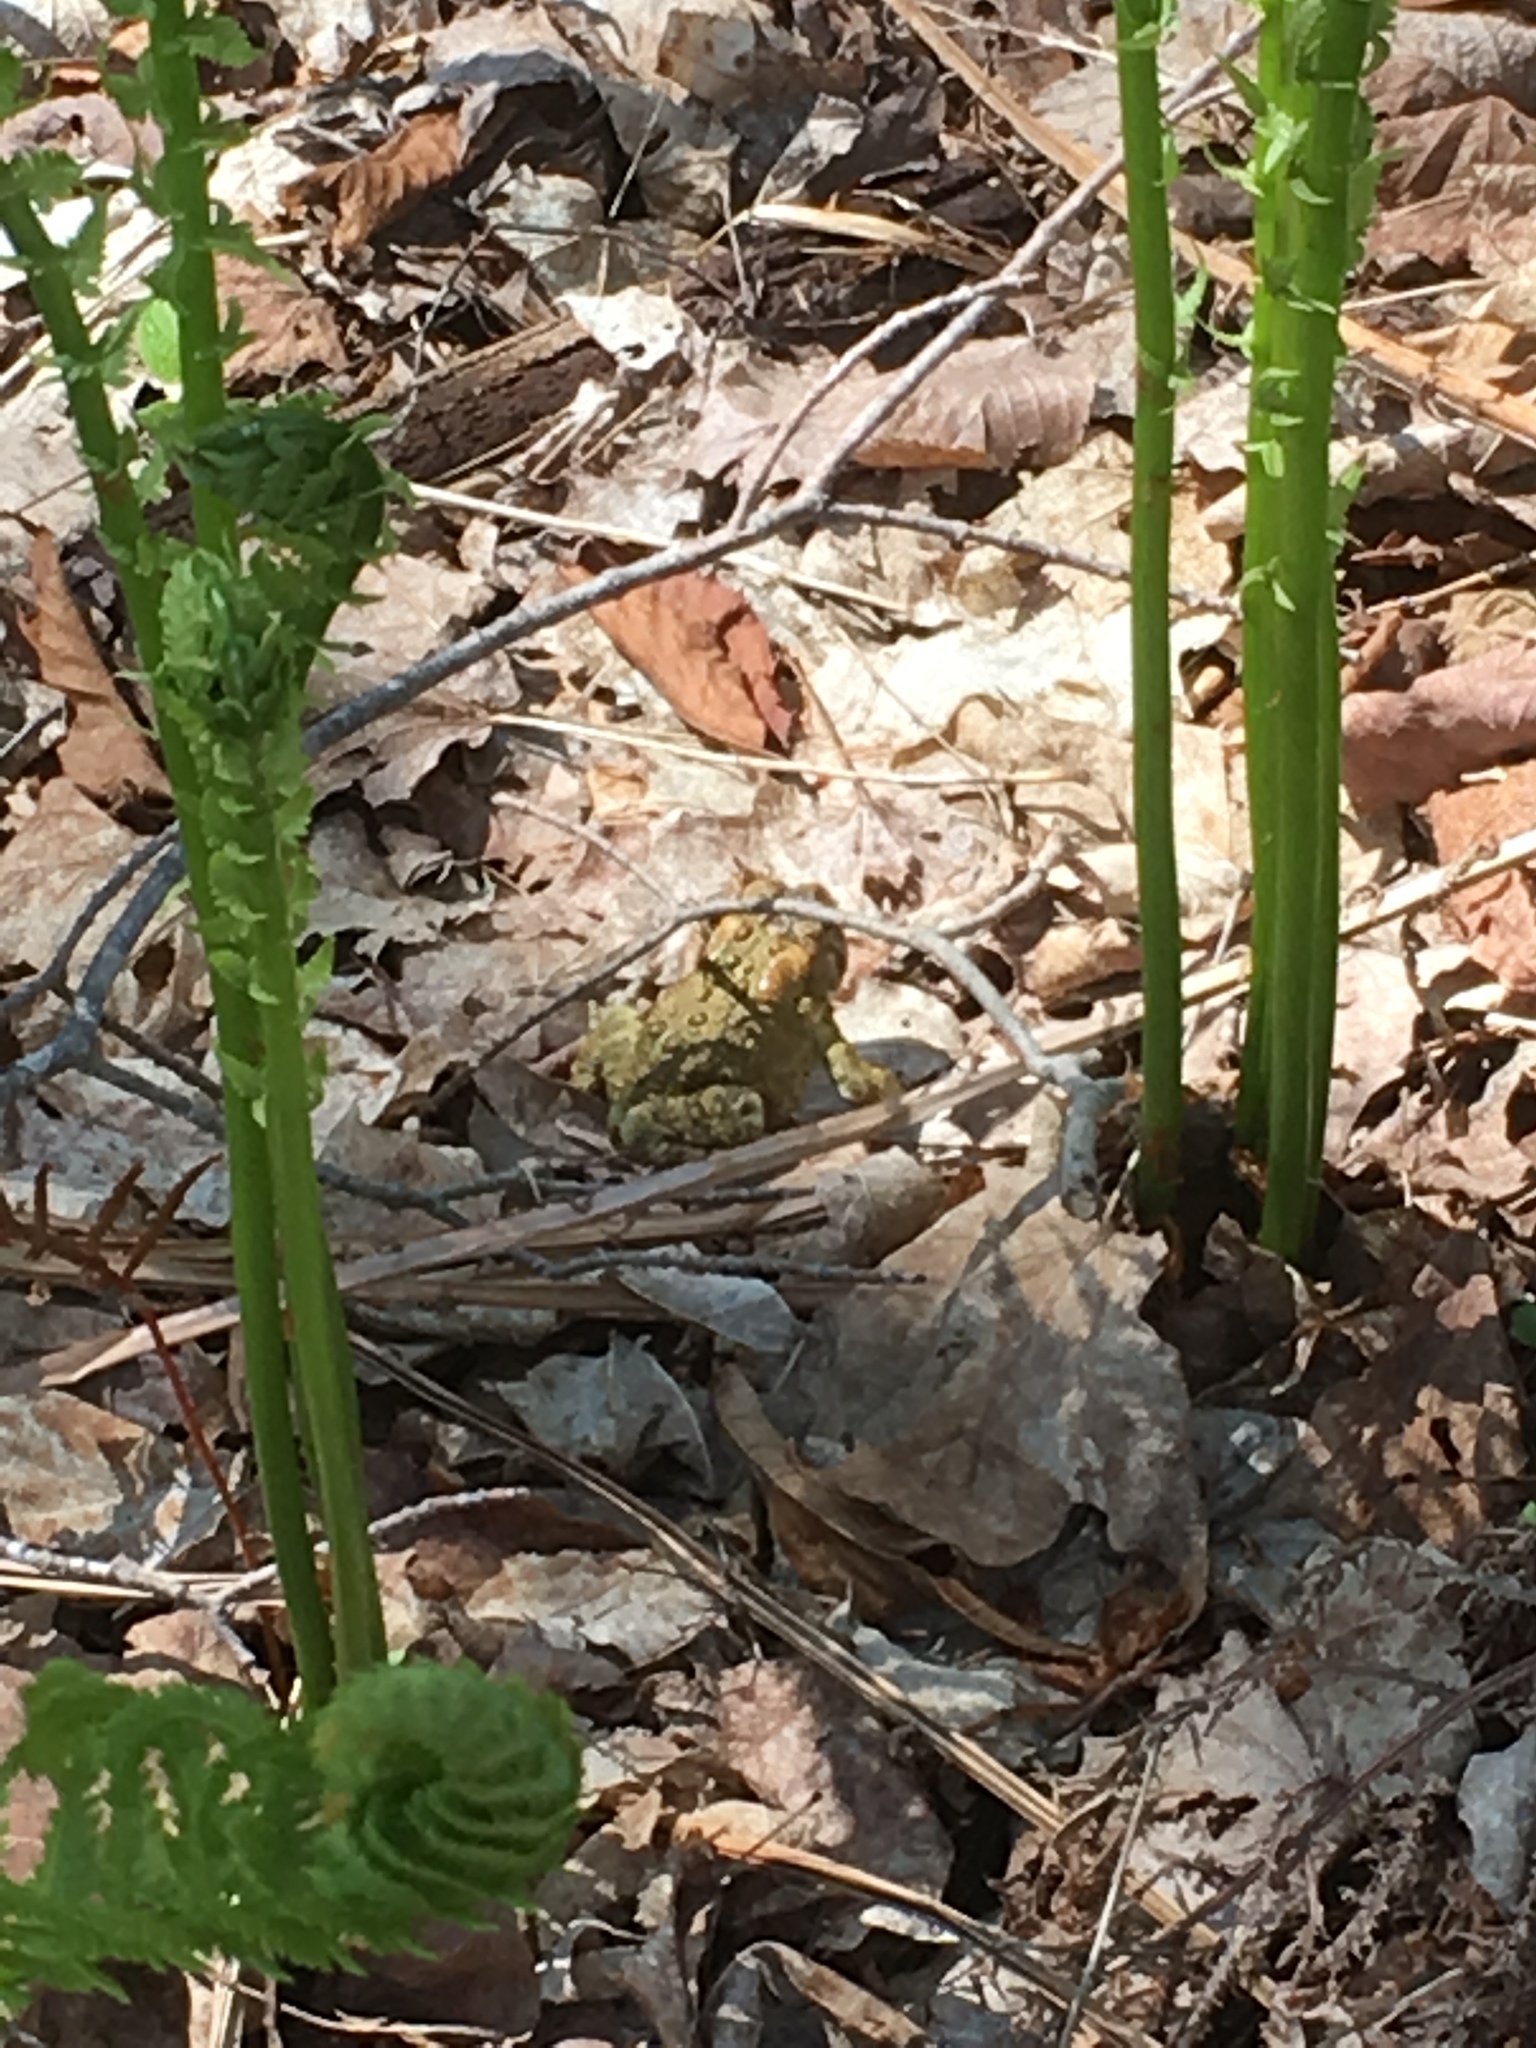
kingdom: Animalia
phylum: Chordata
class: Amphibia
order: Anura
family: Bufonidae
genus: Anaxyrus
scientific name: Anaxyrus americanus
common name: American toad
